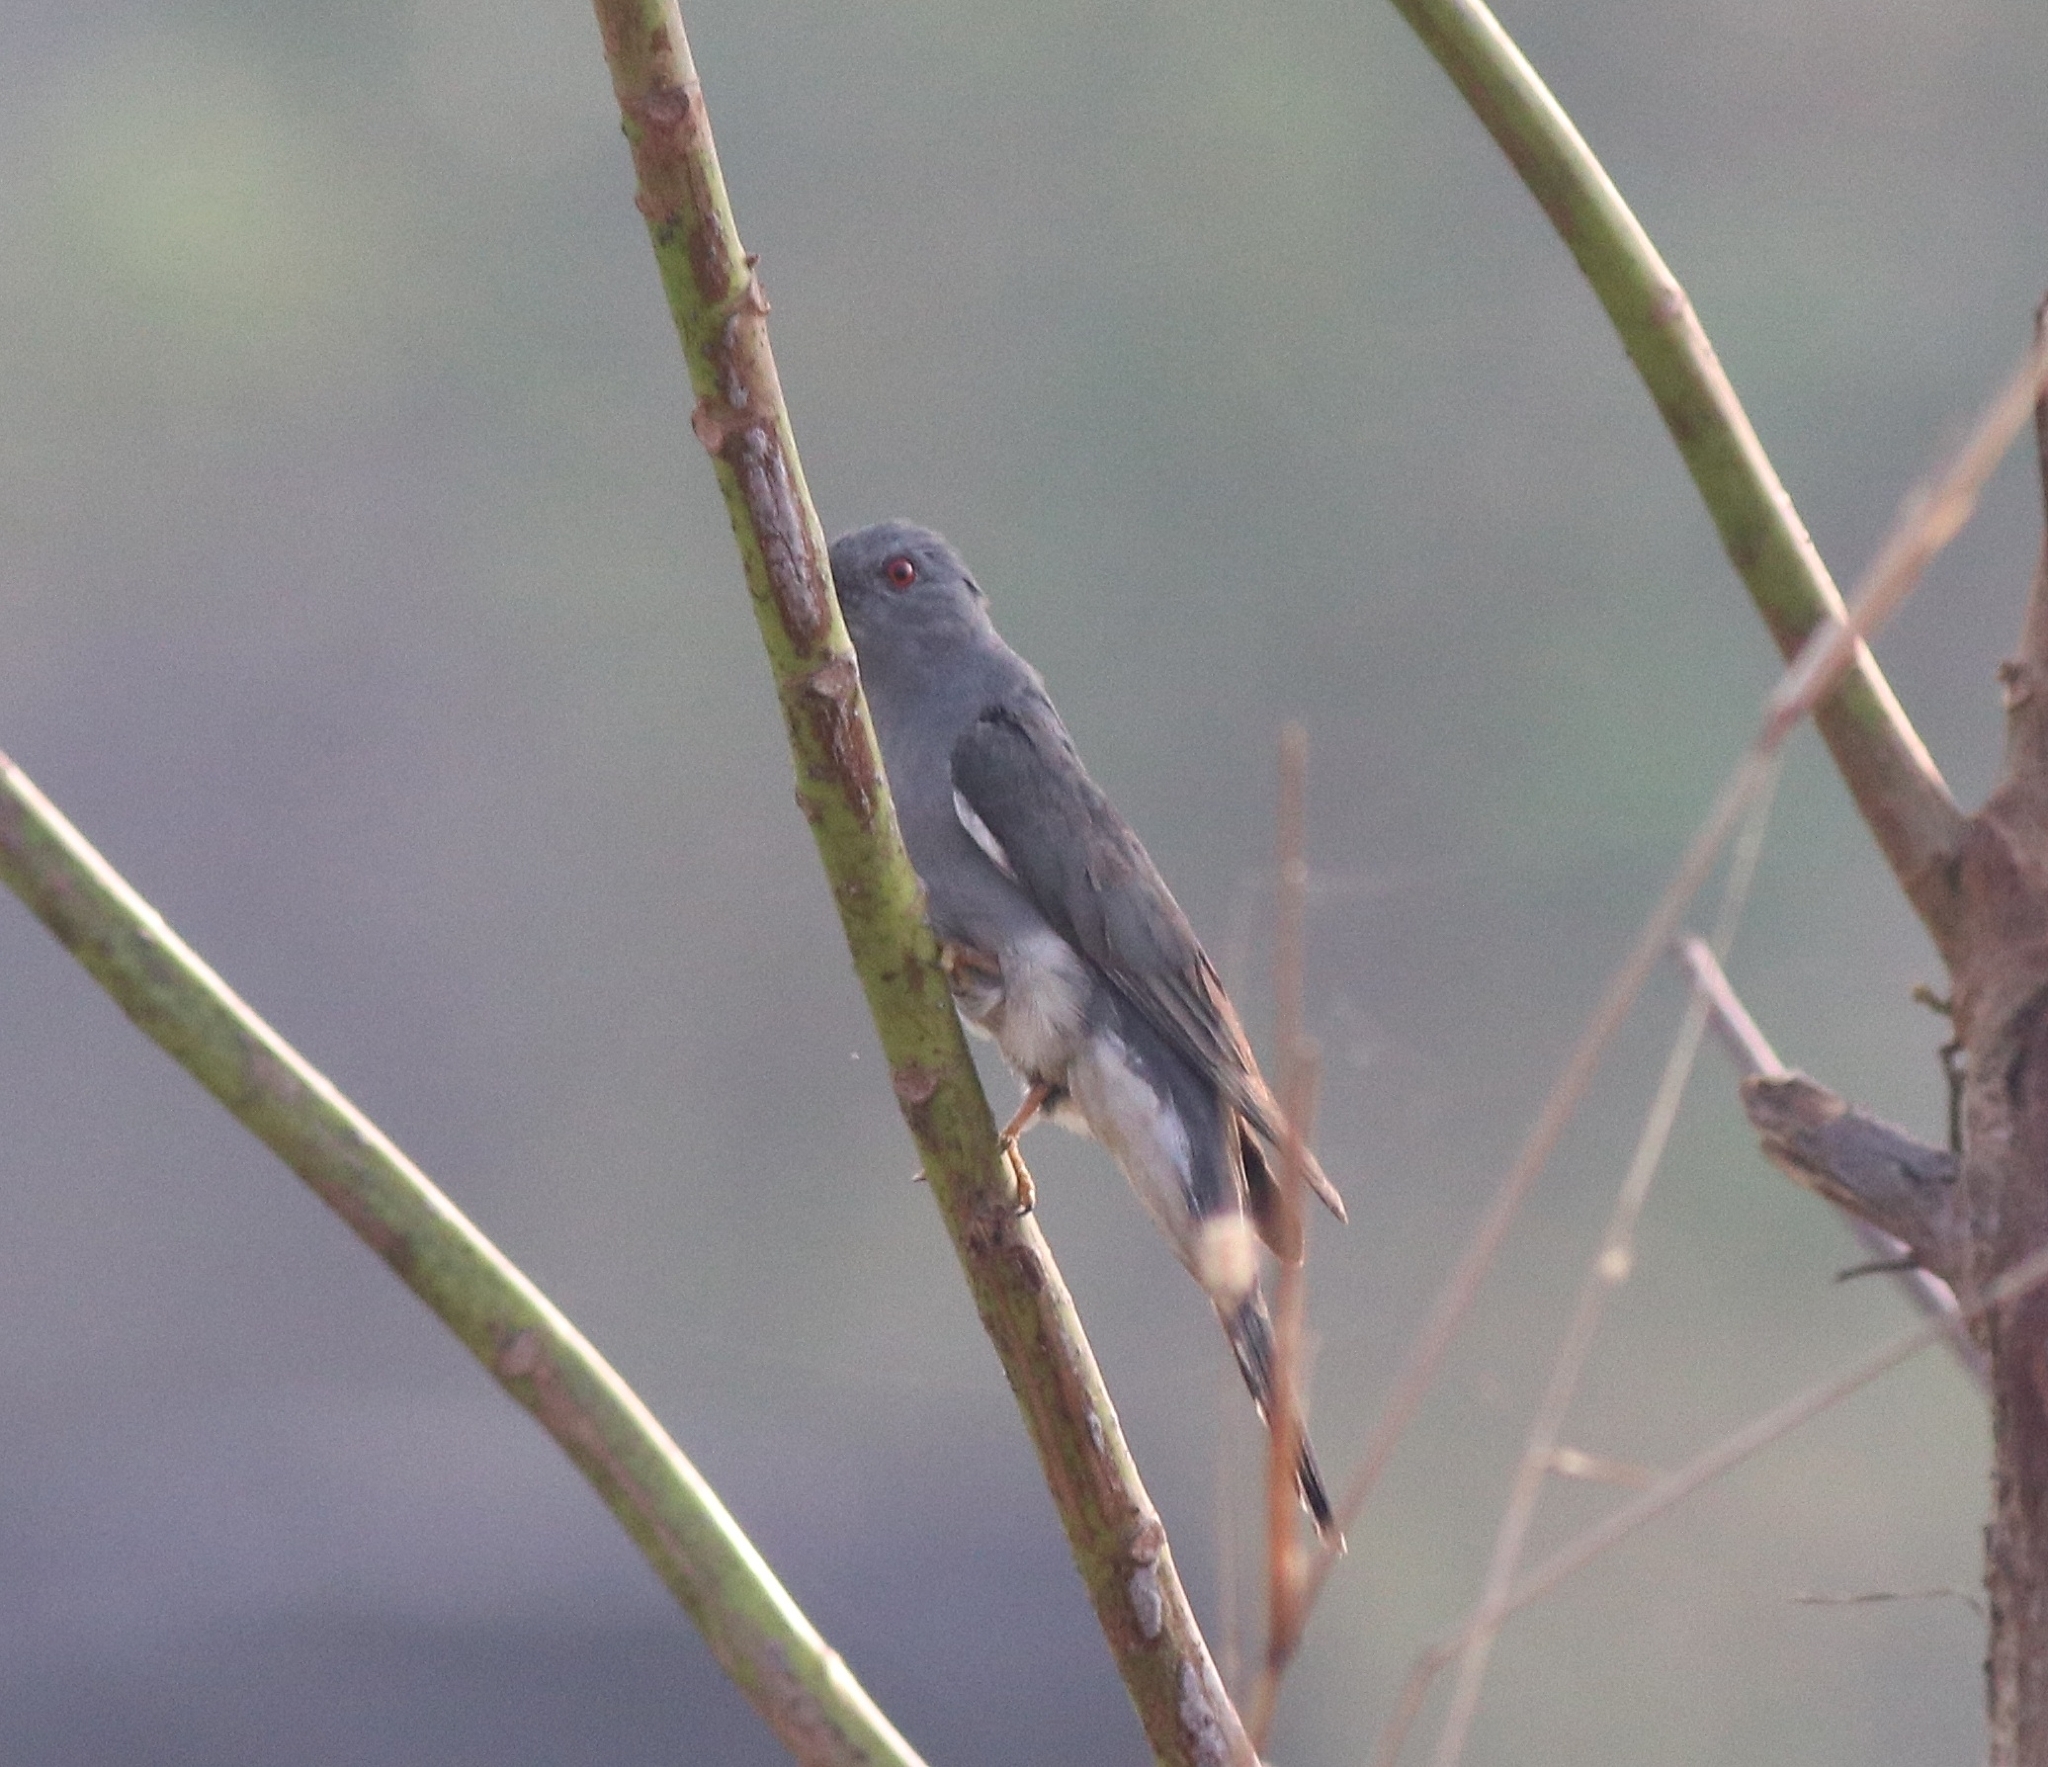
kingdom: Animalia
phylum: Chordata
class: Aves
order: Cuculiformes
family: Cuculidae
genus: Cacomantis
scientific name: Cacomantis passerinus
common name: Grey-bellied cuckoo
